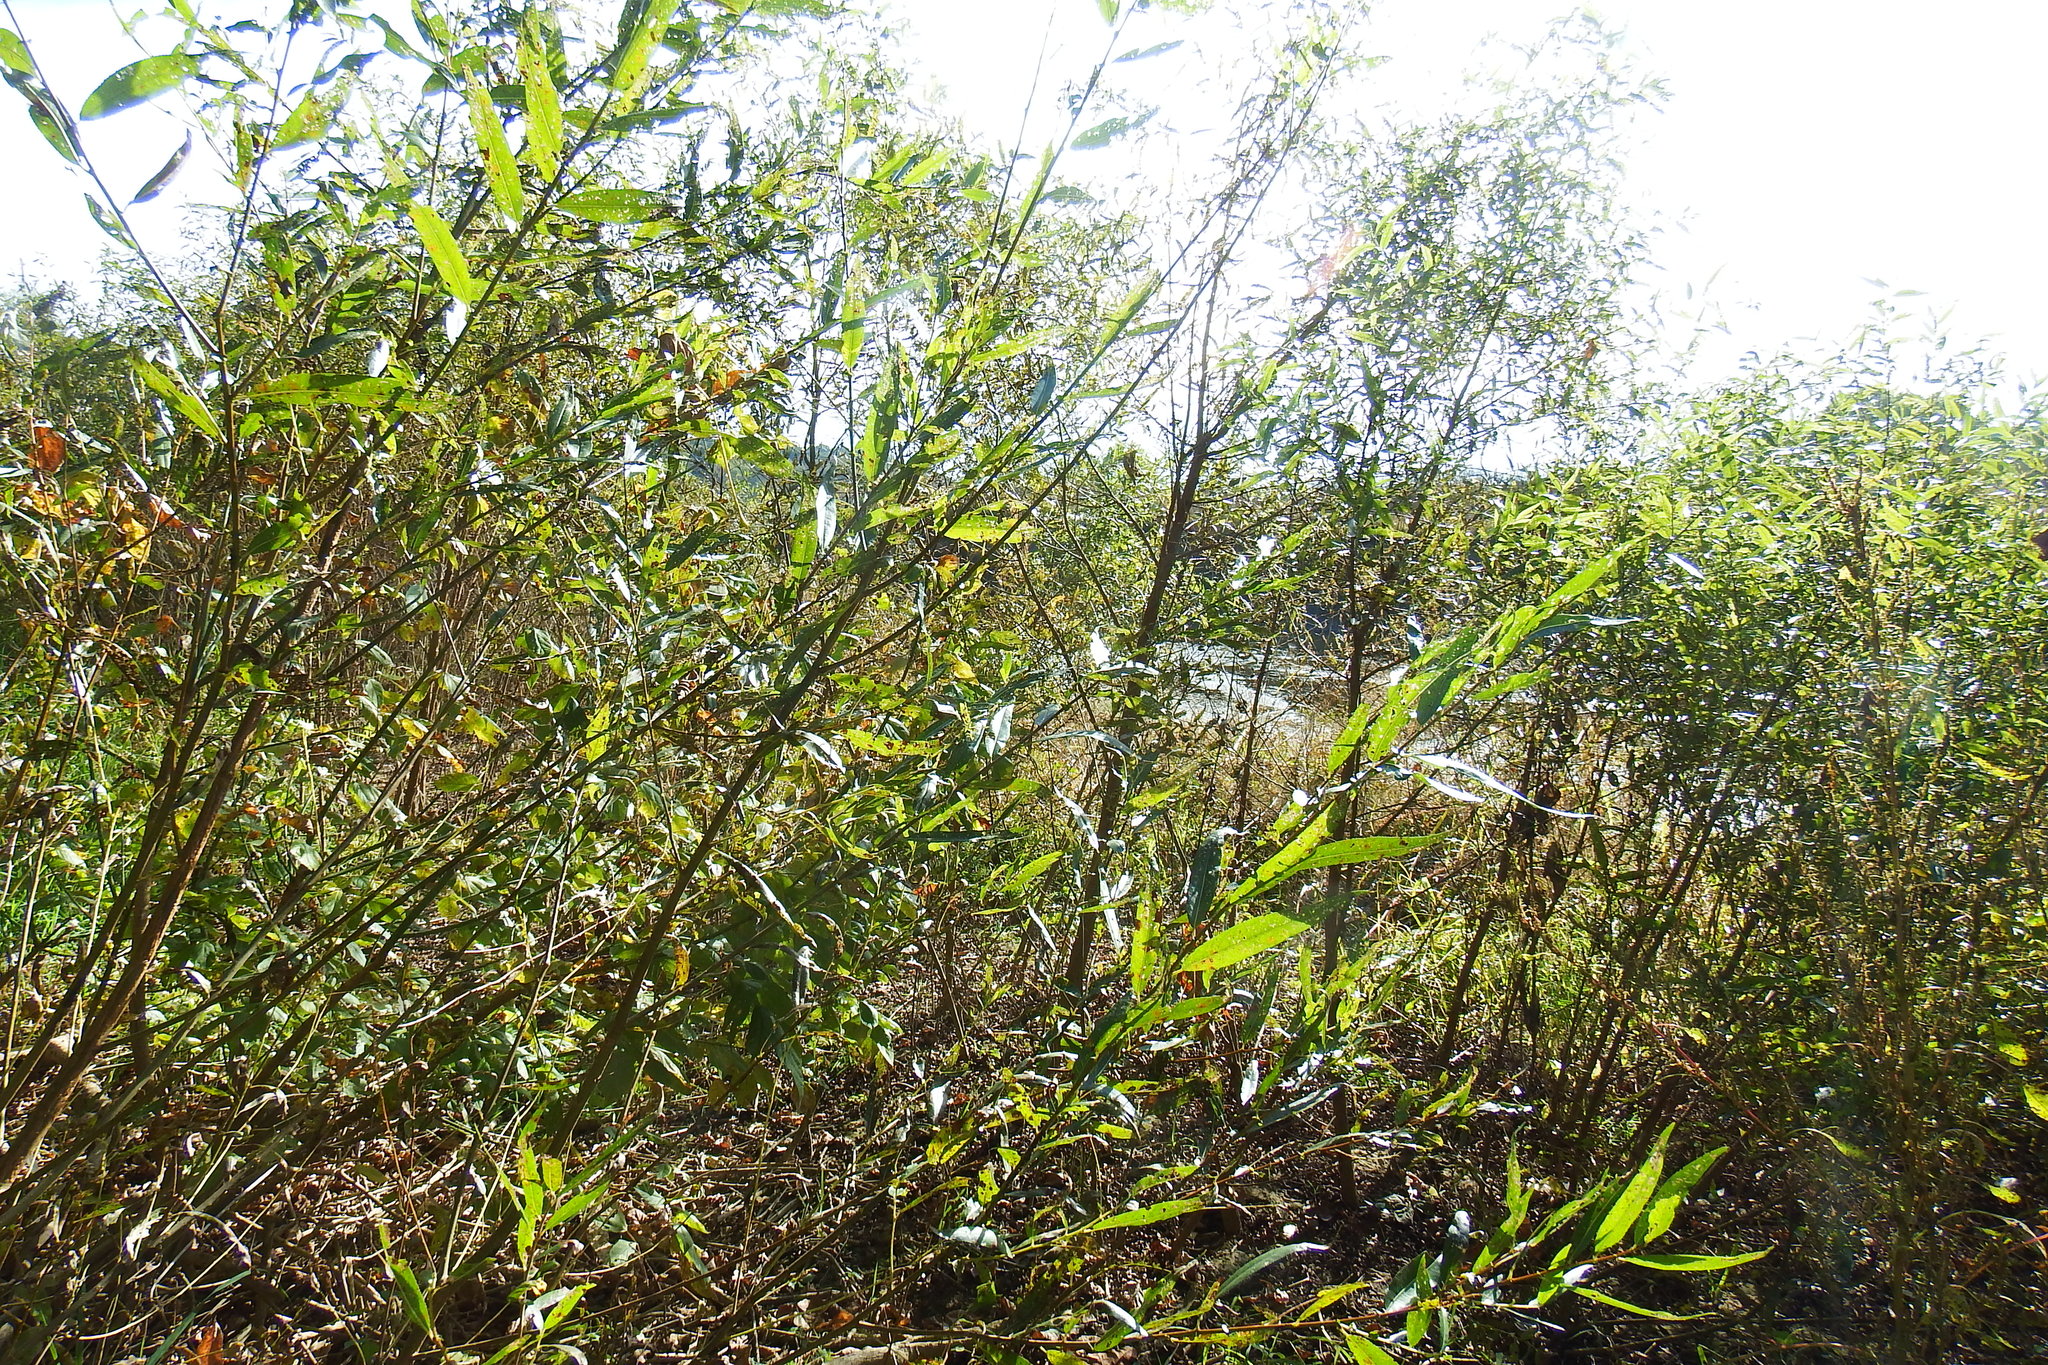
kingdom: Plantae
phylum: Tracheophyta
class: Magnoliopsida
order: Malpighiales
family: Salicaceae
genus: Salix
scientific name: Salix nigra
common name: Black willow
